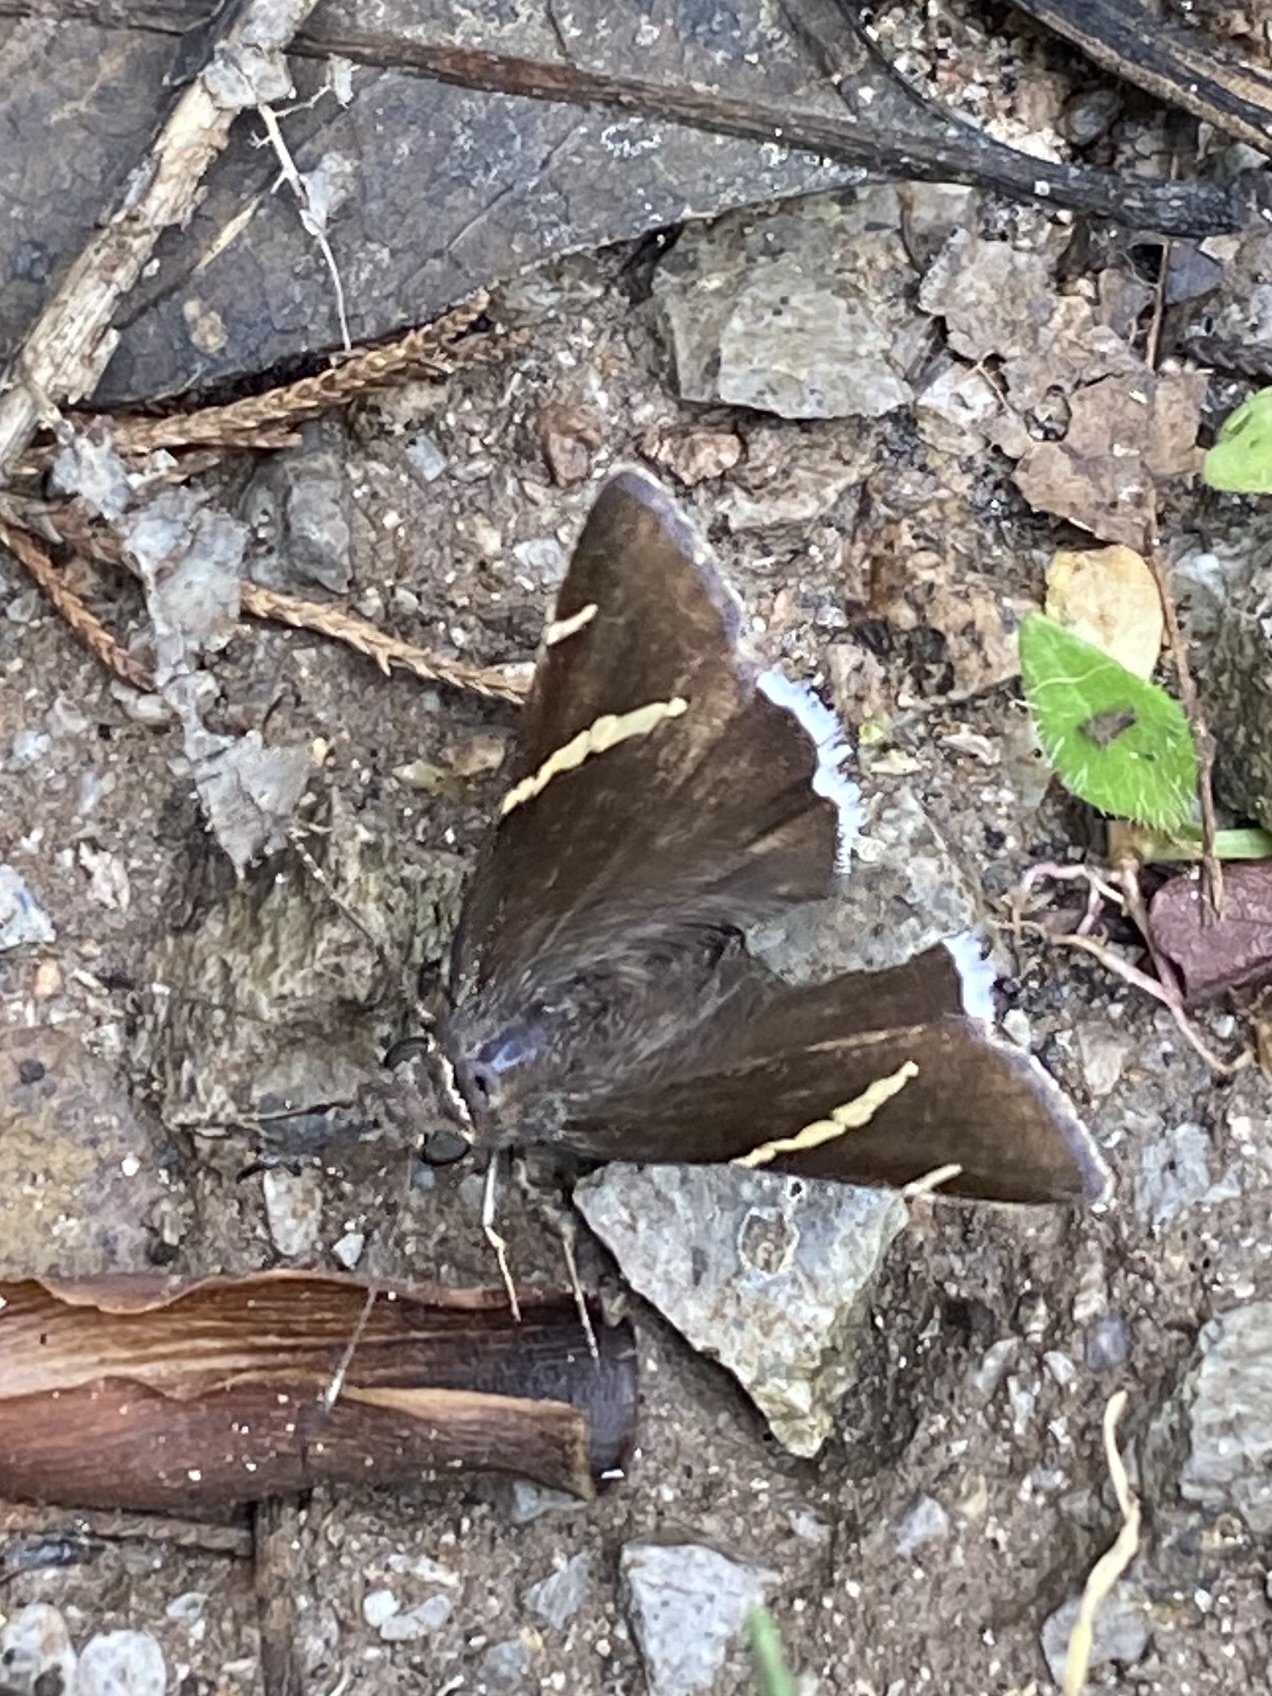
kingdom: Animalia
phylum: Arthropoda
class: Insecta
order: Lepidoptera
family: Hesperiidae
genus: Thorybes
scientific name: Thorybes cincta
